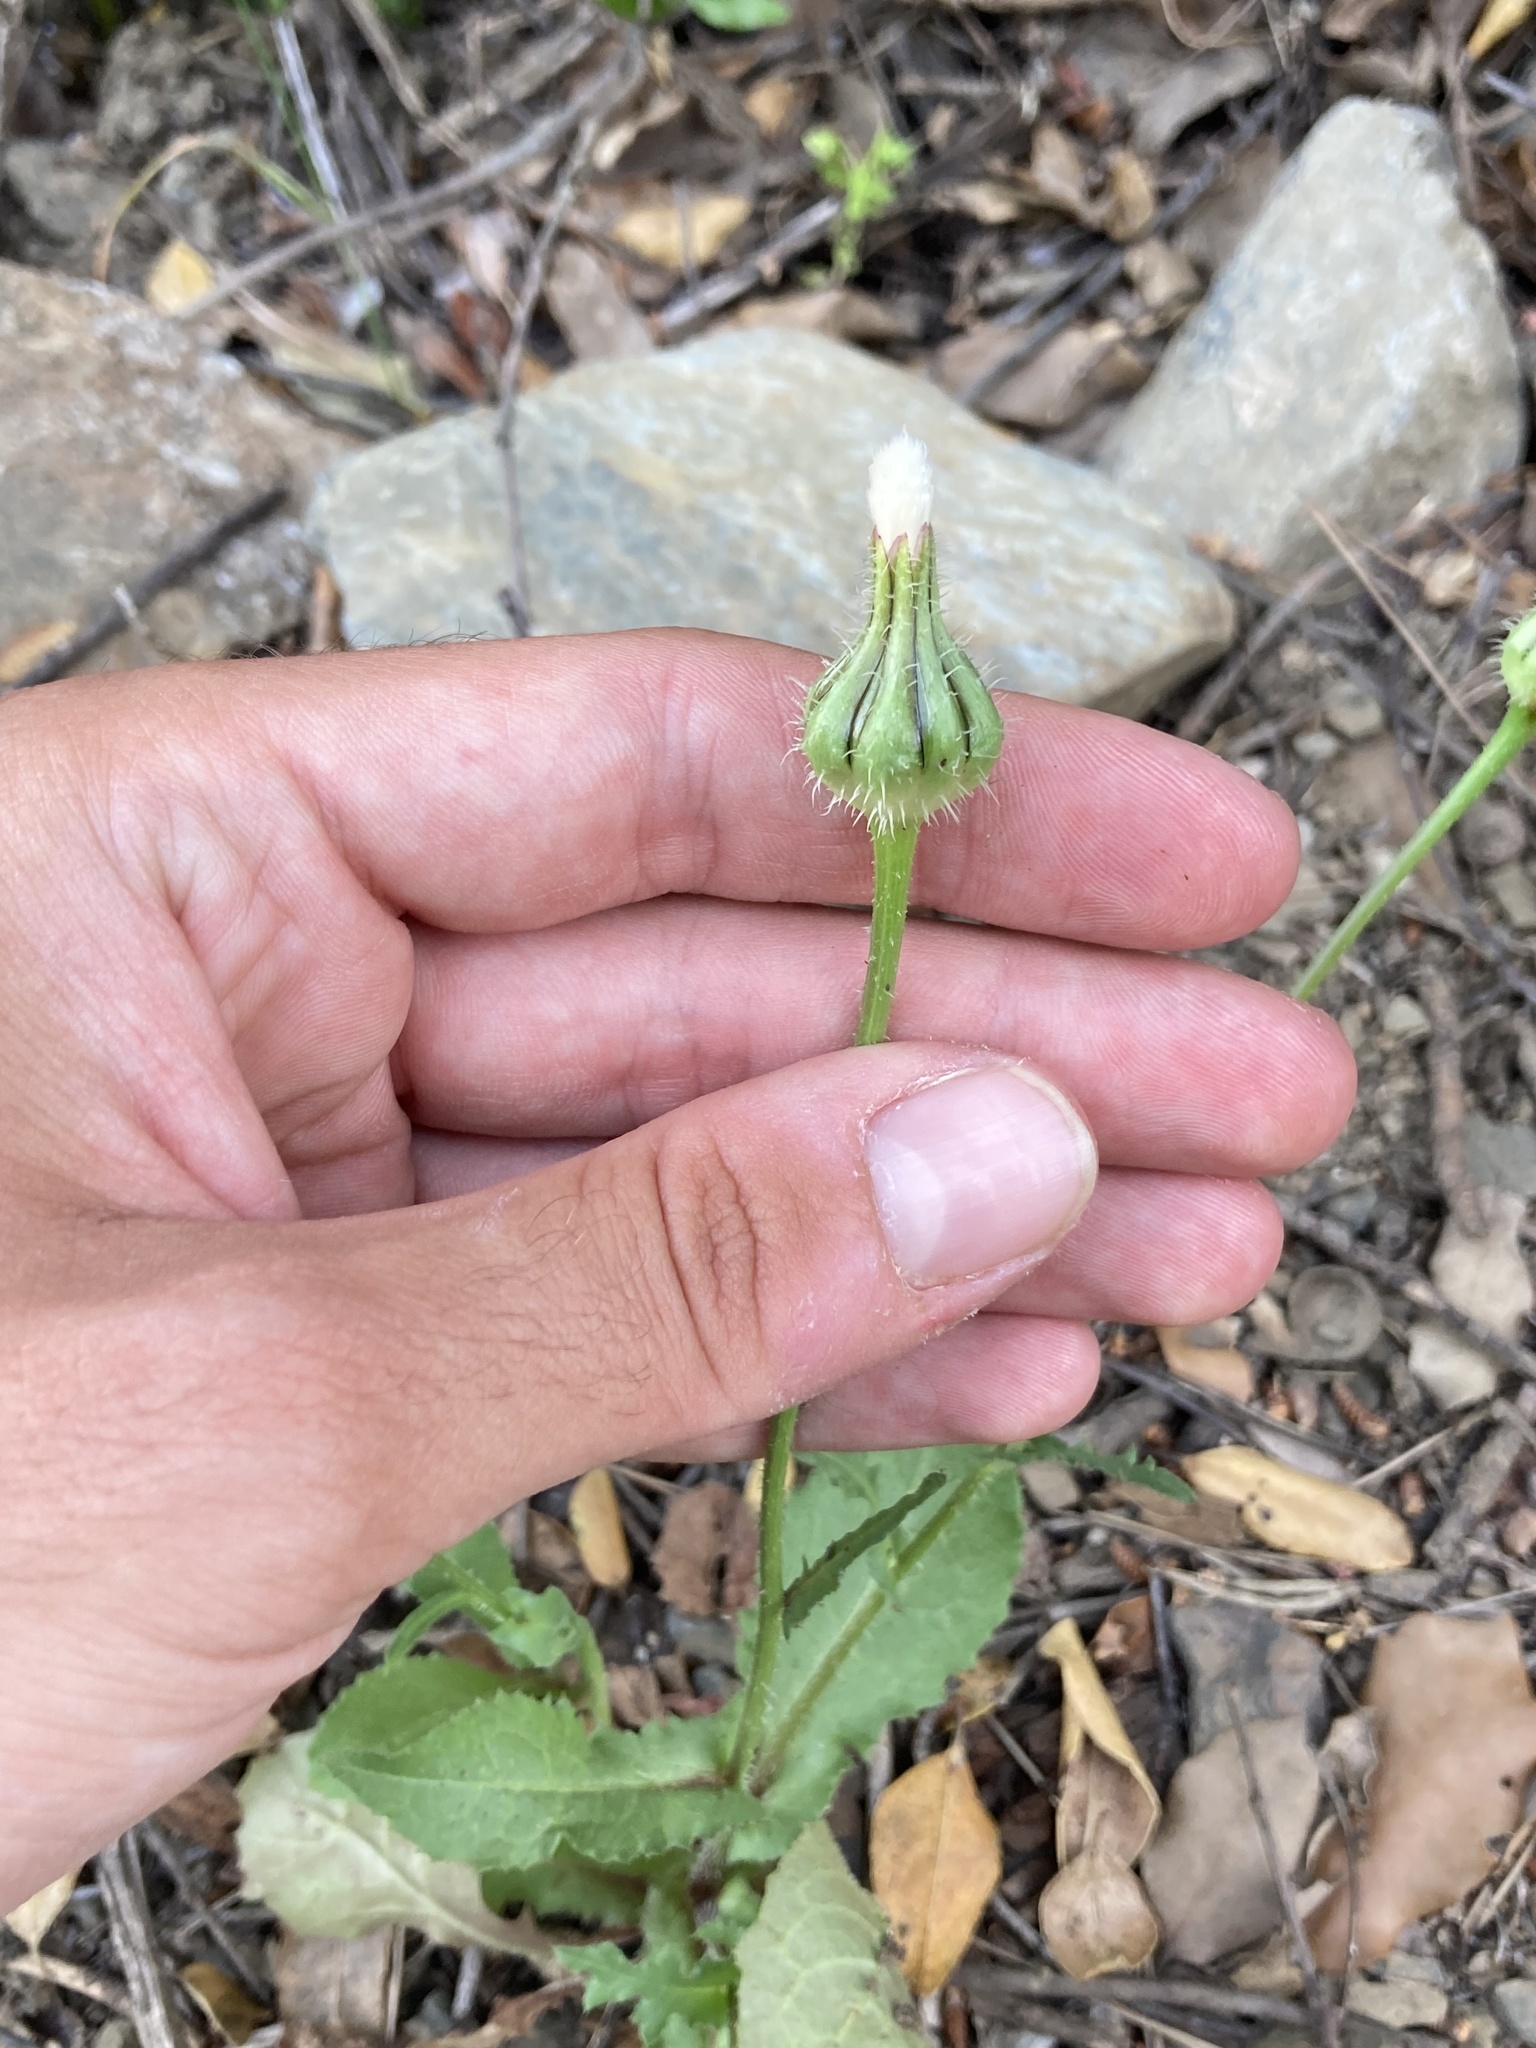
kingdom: Plantae
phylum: Tracheophyta
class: Magnoliopsida
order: Asterales
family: Asteraceae
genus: Urospermum
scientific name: Urospermum picroides
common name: False hawkbit
